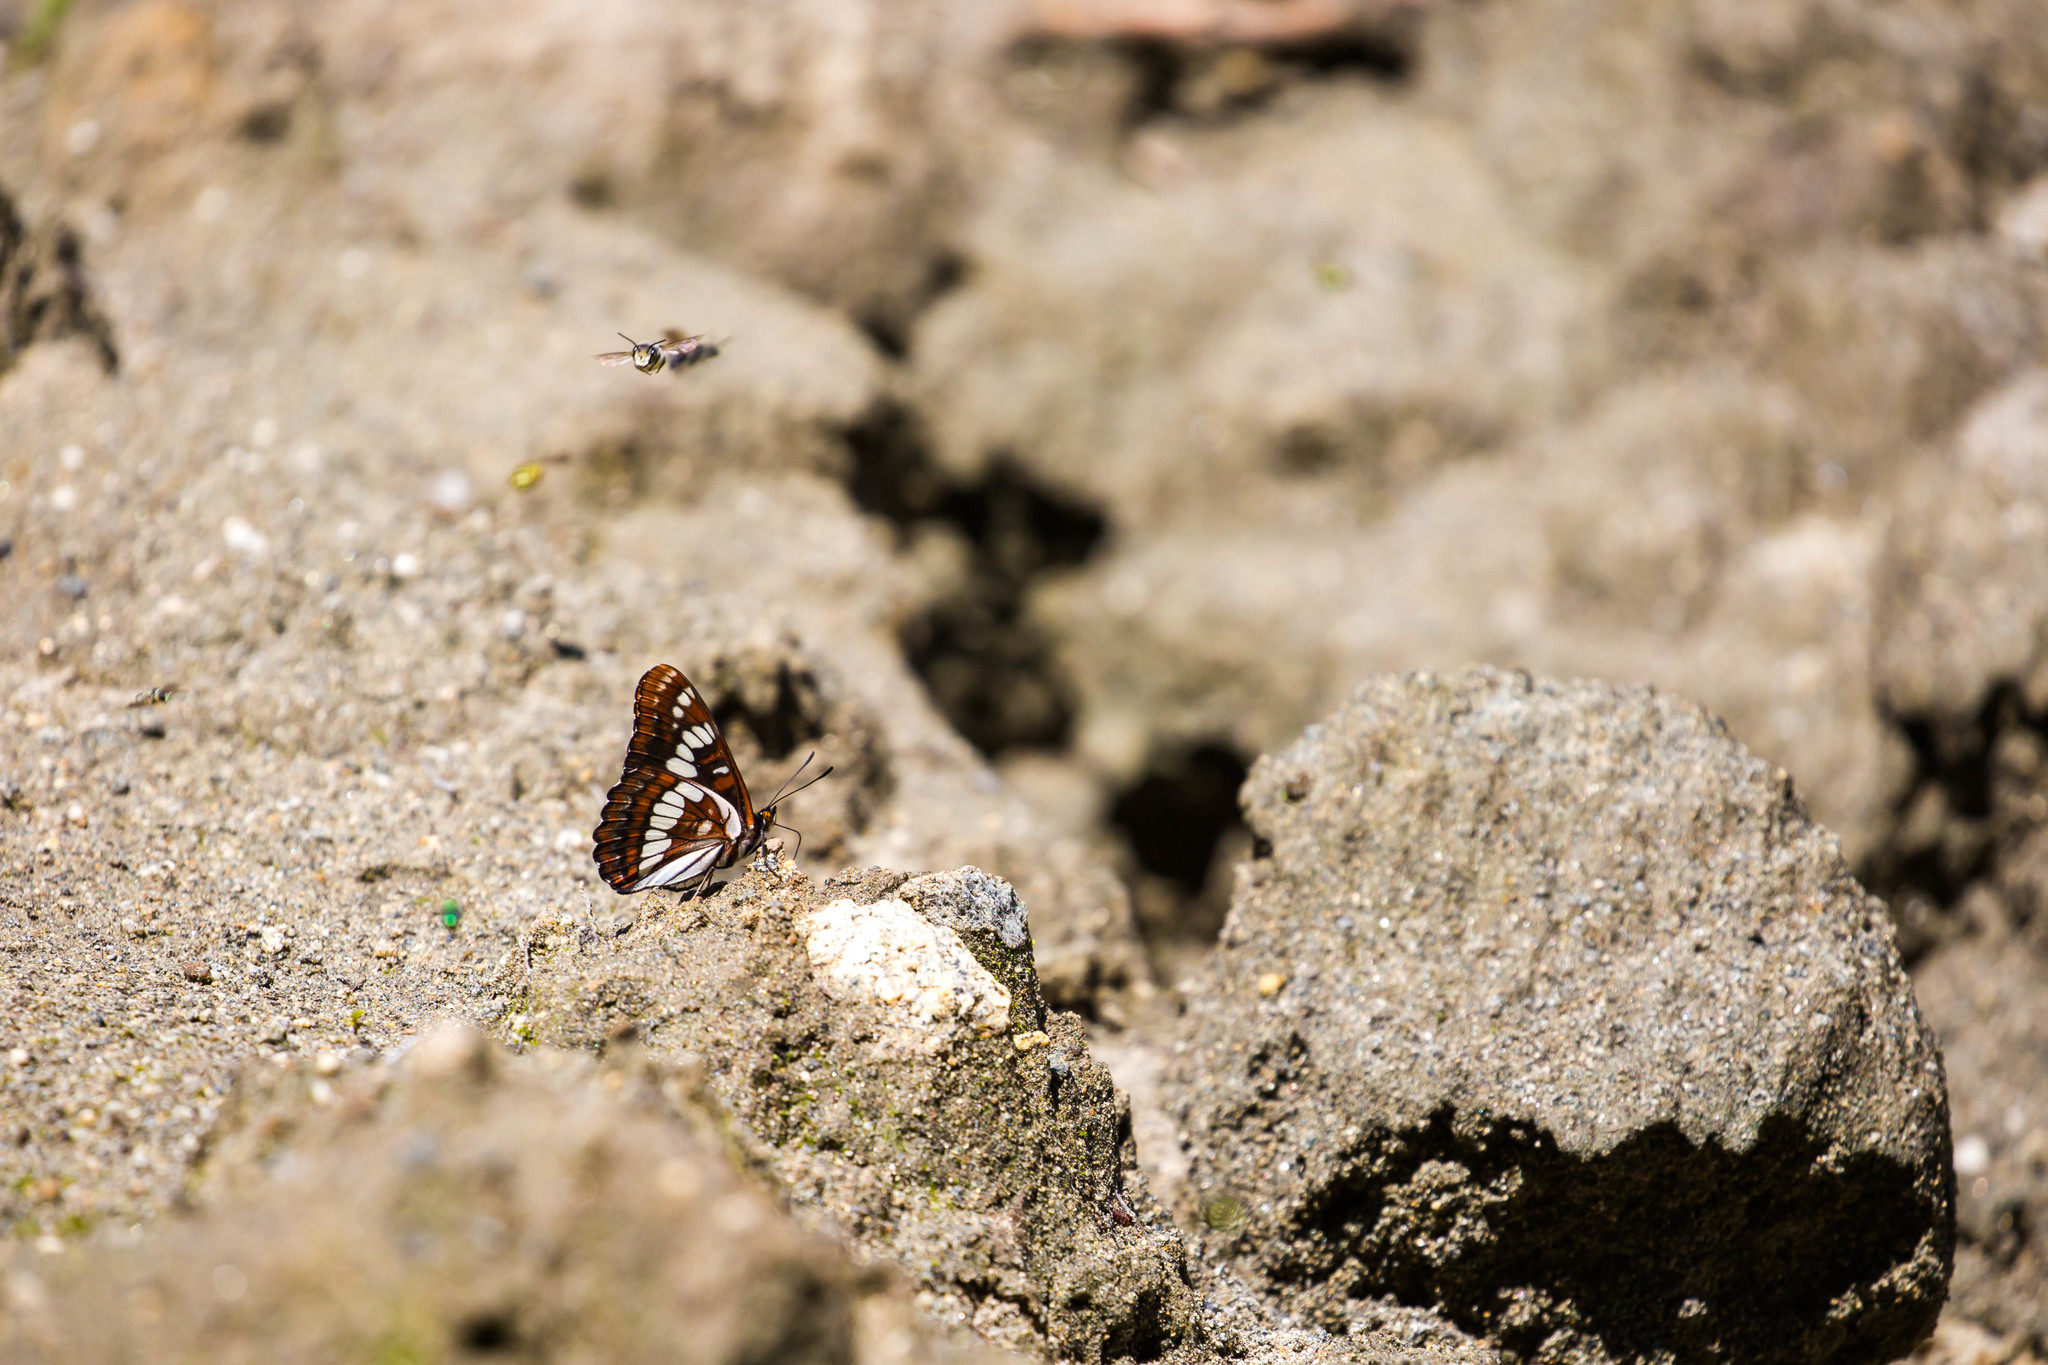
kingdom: Animalia
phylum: Arthropoda
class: Insecta
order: Lepidoptera
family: Nymphalidae
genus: Limenitis
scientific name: Limenitis lorquini
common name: Lorquin's admiral
